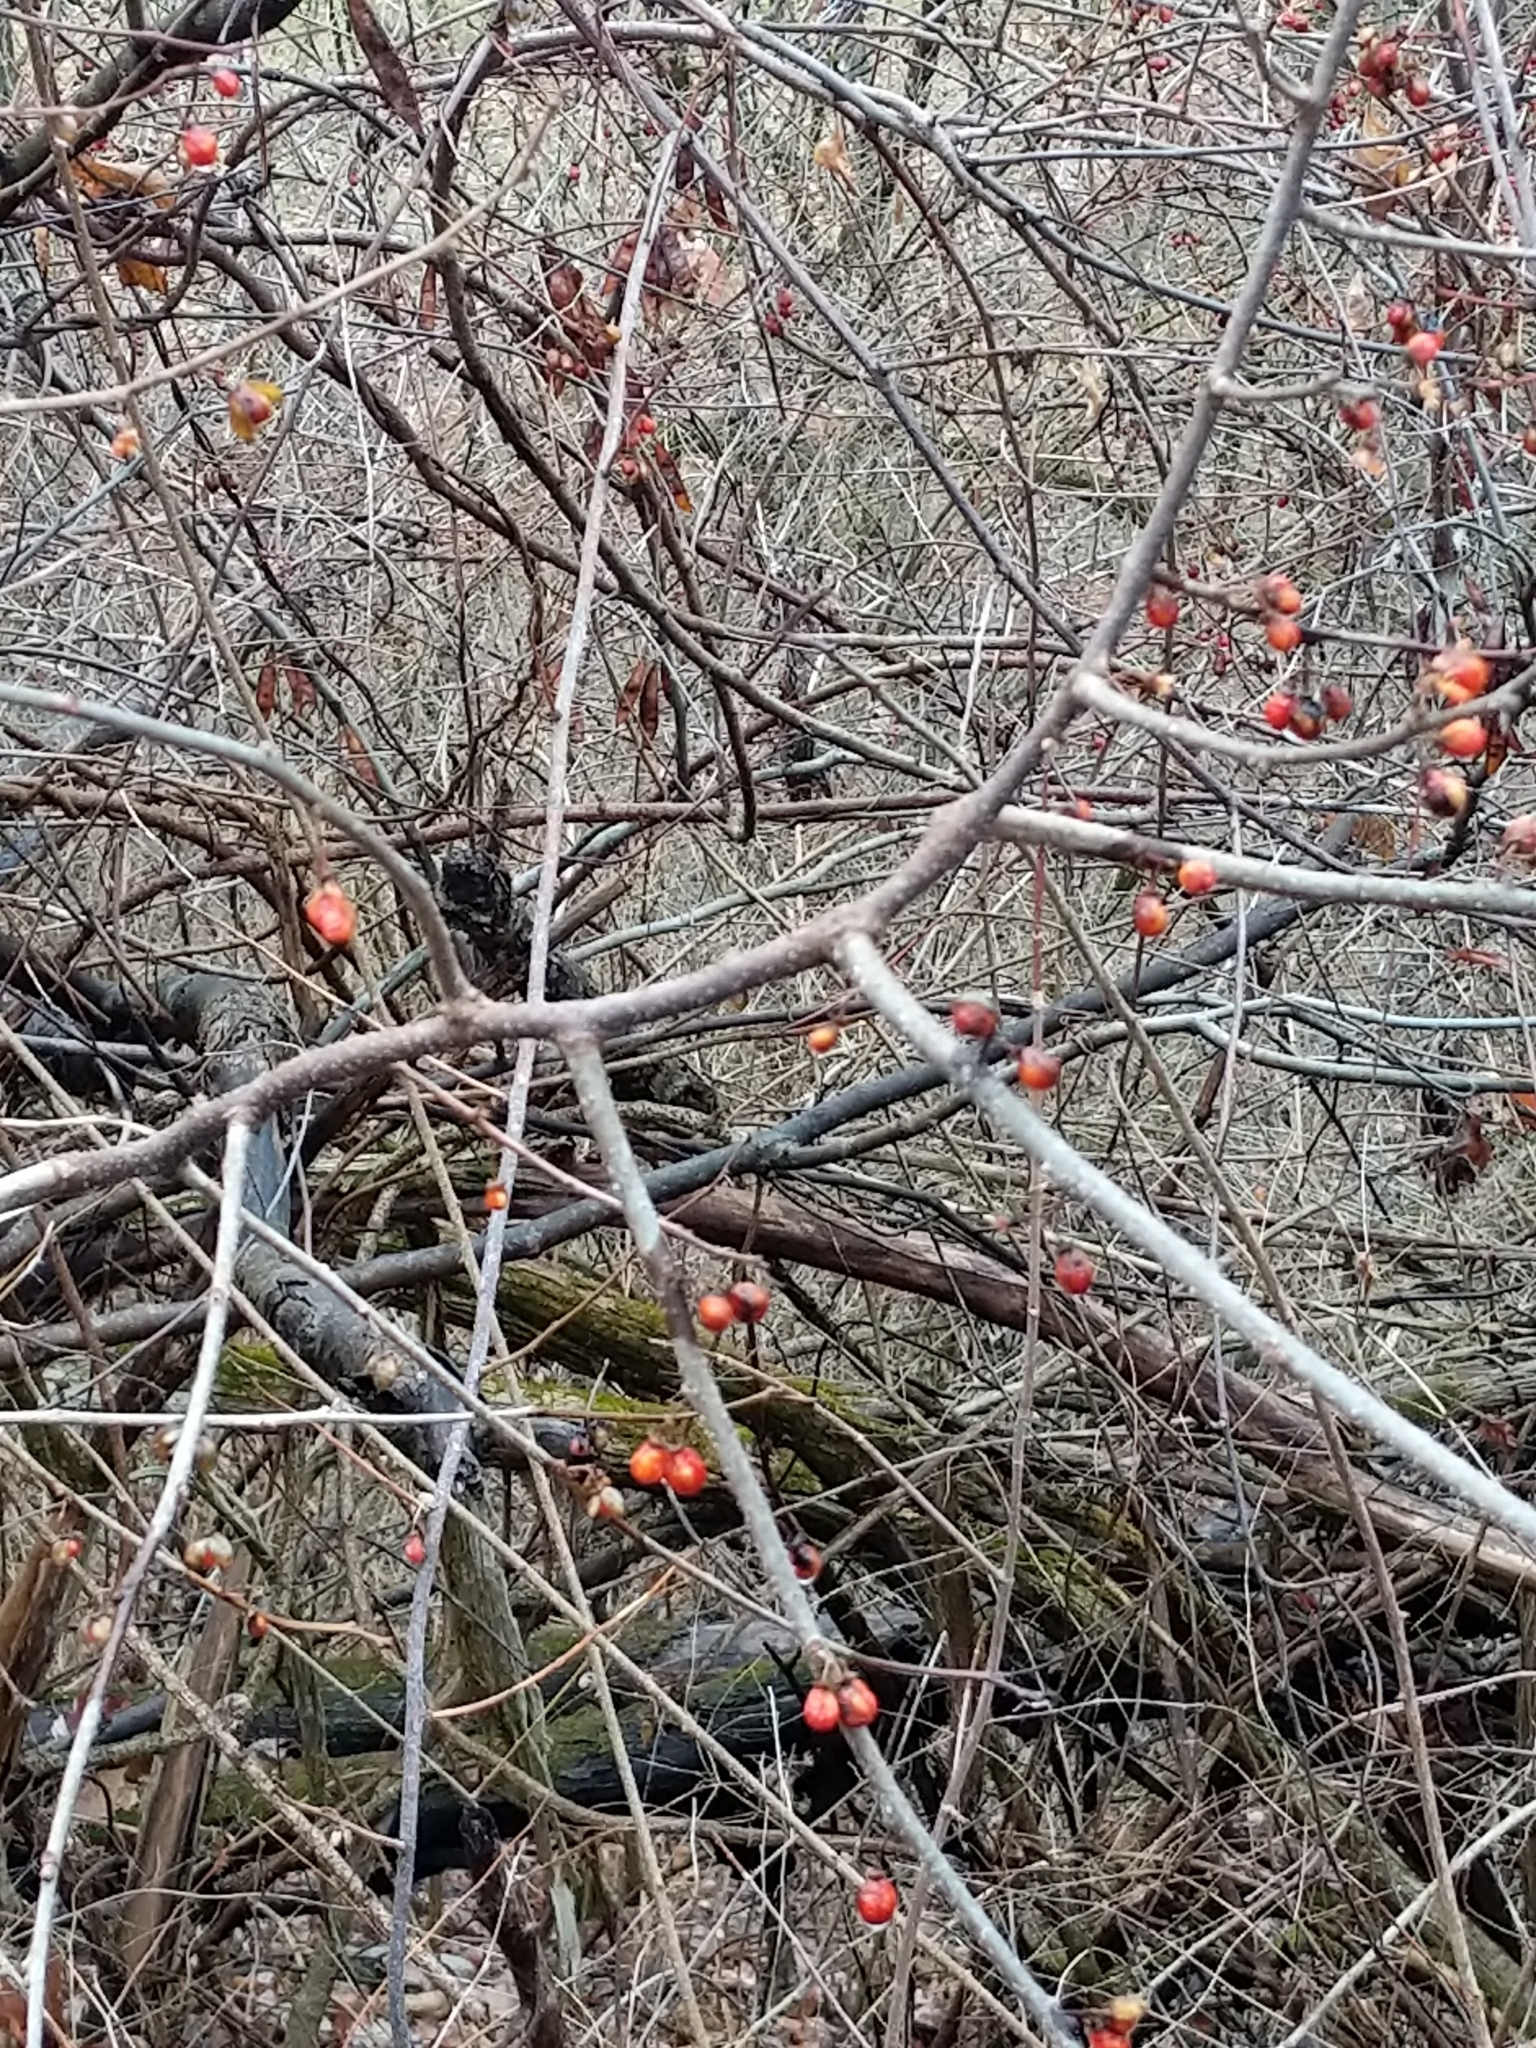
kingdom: Plantae
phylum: Tracheophyta
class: Magnoliopsida
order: Celastrales
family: Celastraceae
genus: Celastrus
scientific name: Celastrus orbiculatus
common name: Oriental bittersweet
